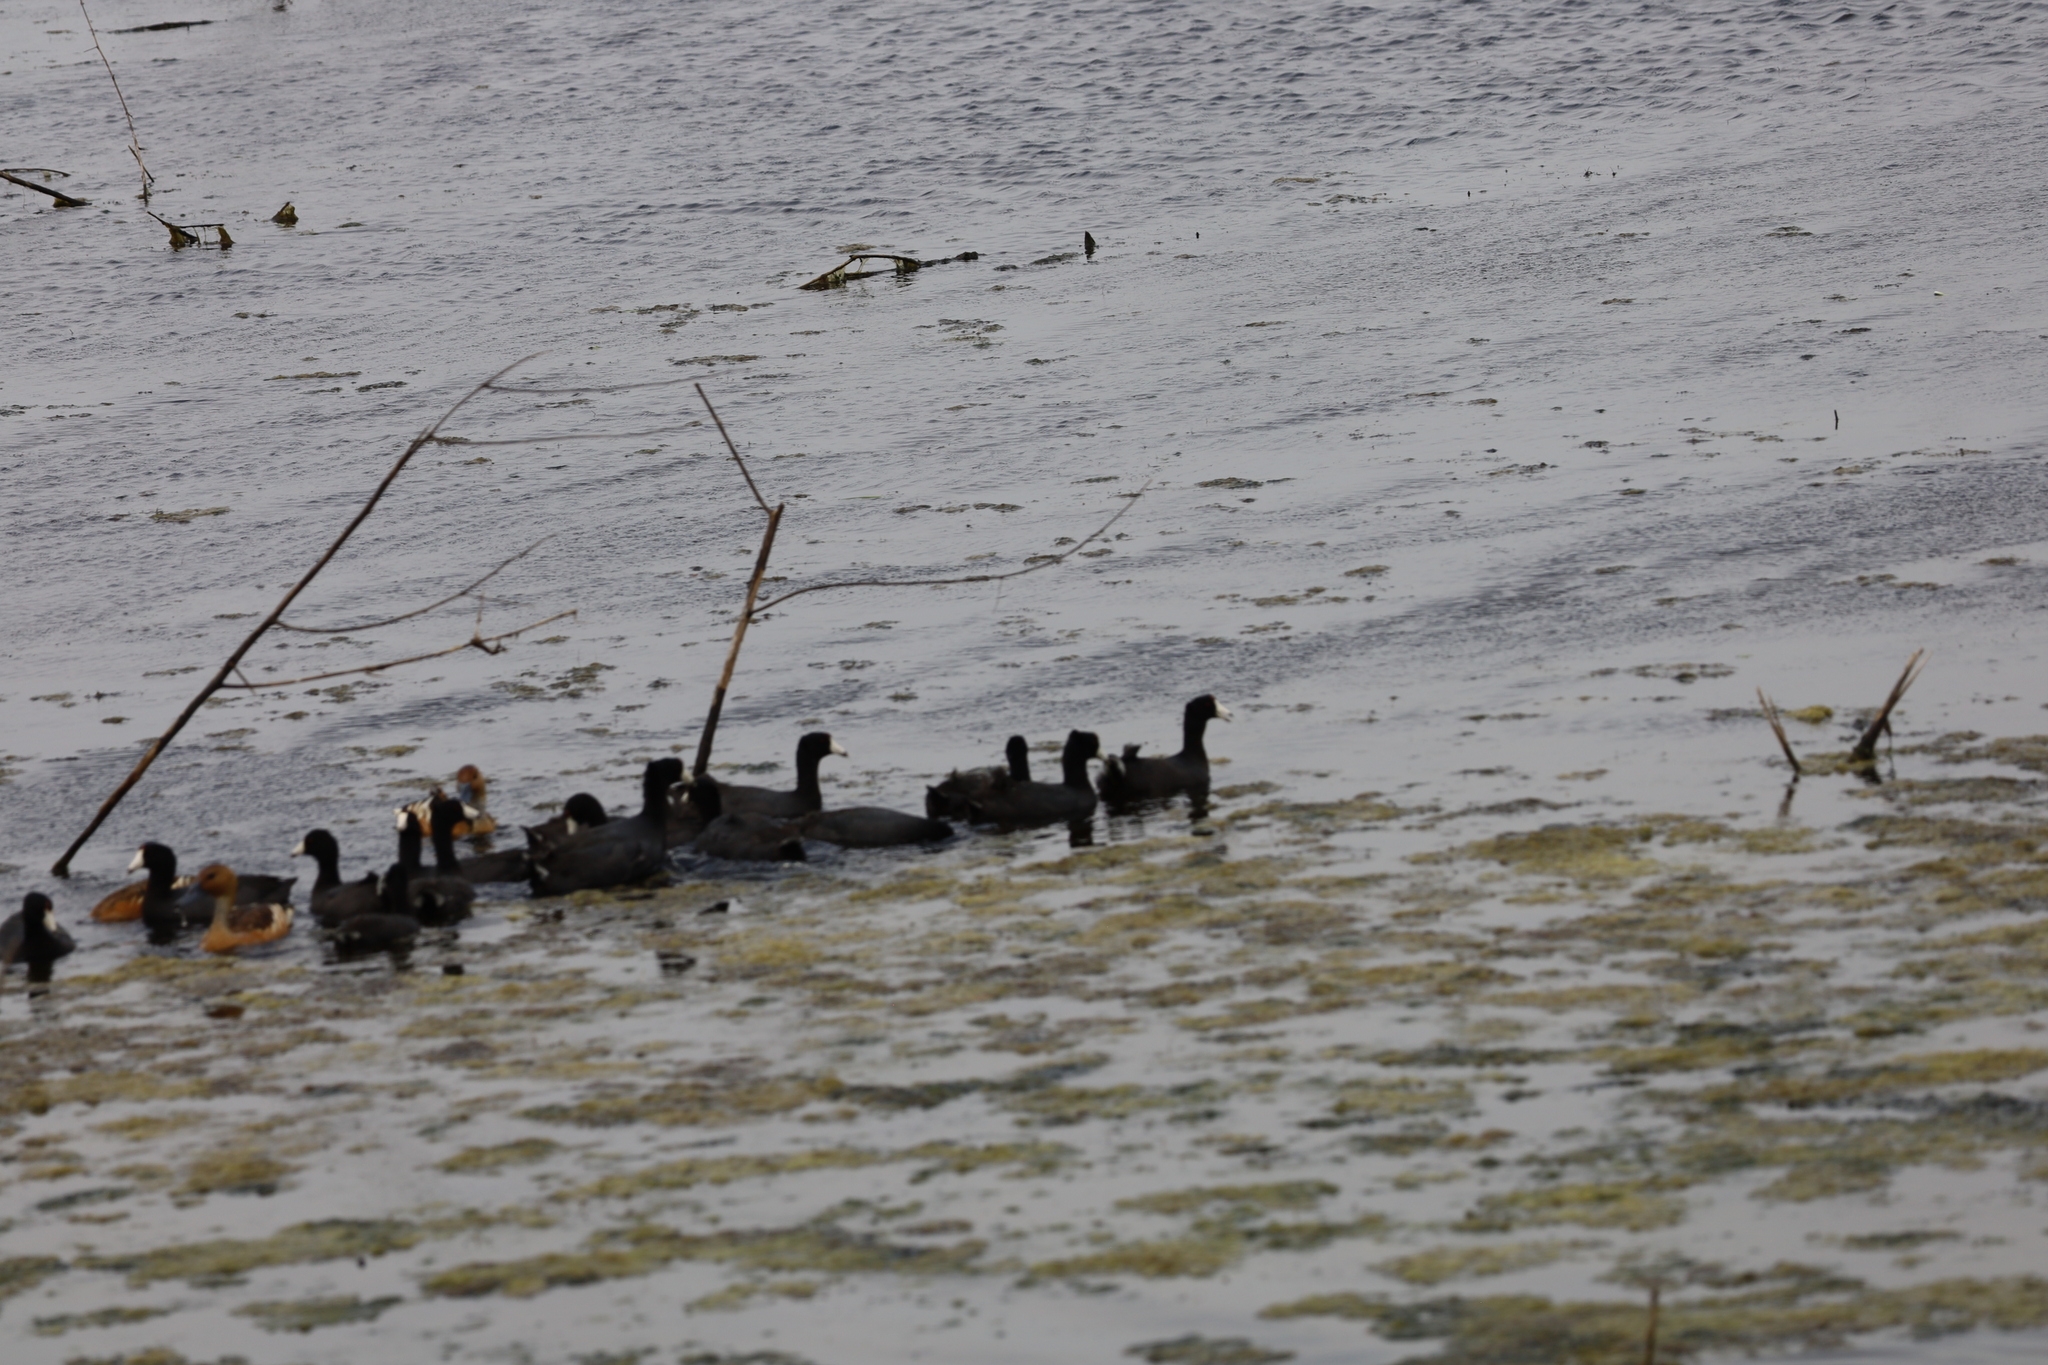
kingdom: Animalia
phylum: Chordata
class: Aves
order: Gruiformes
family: Rallidae
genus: Fulica
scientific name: Fulica americana
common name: American coot
